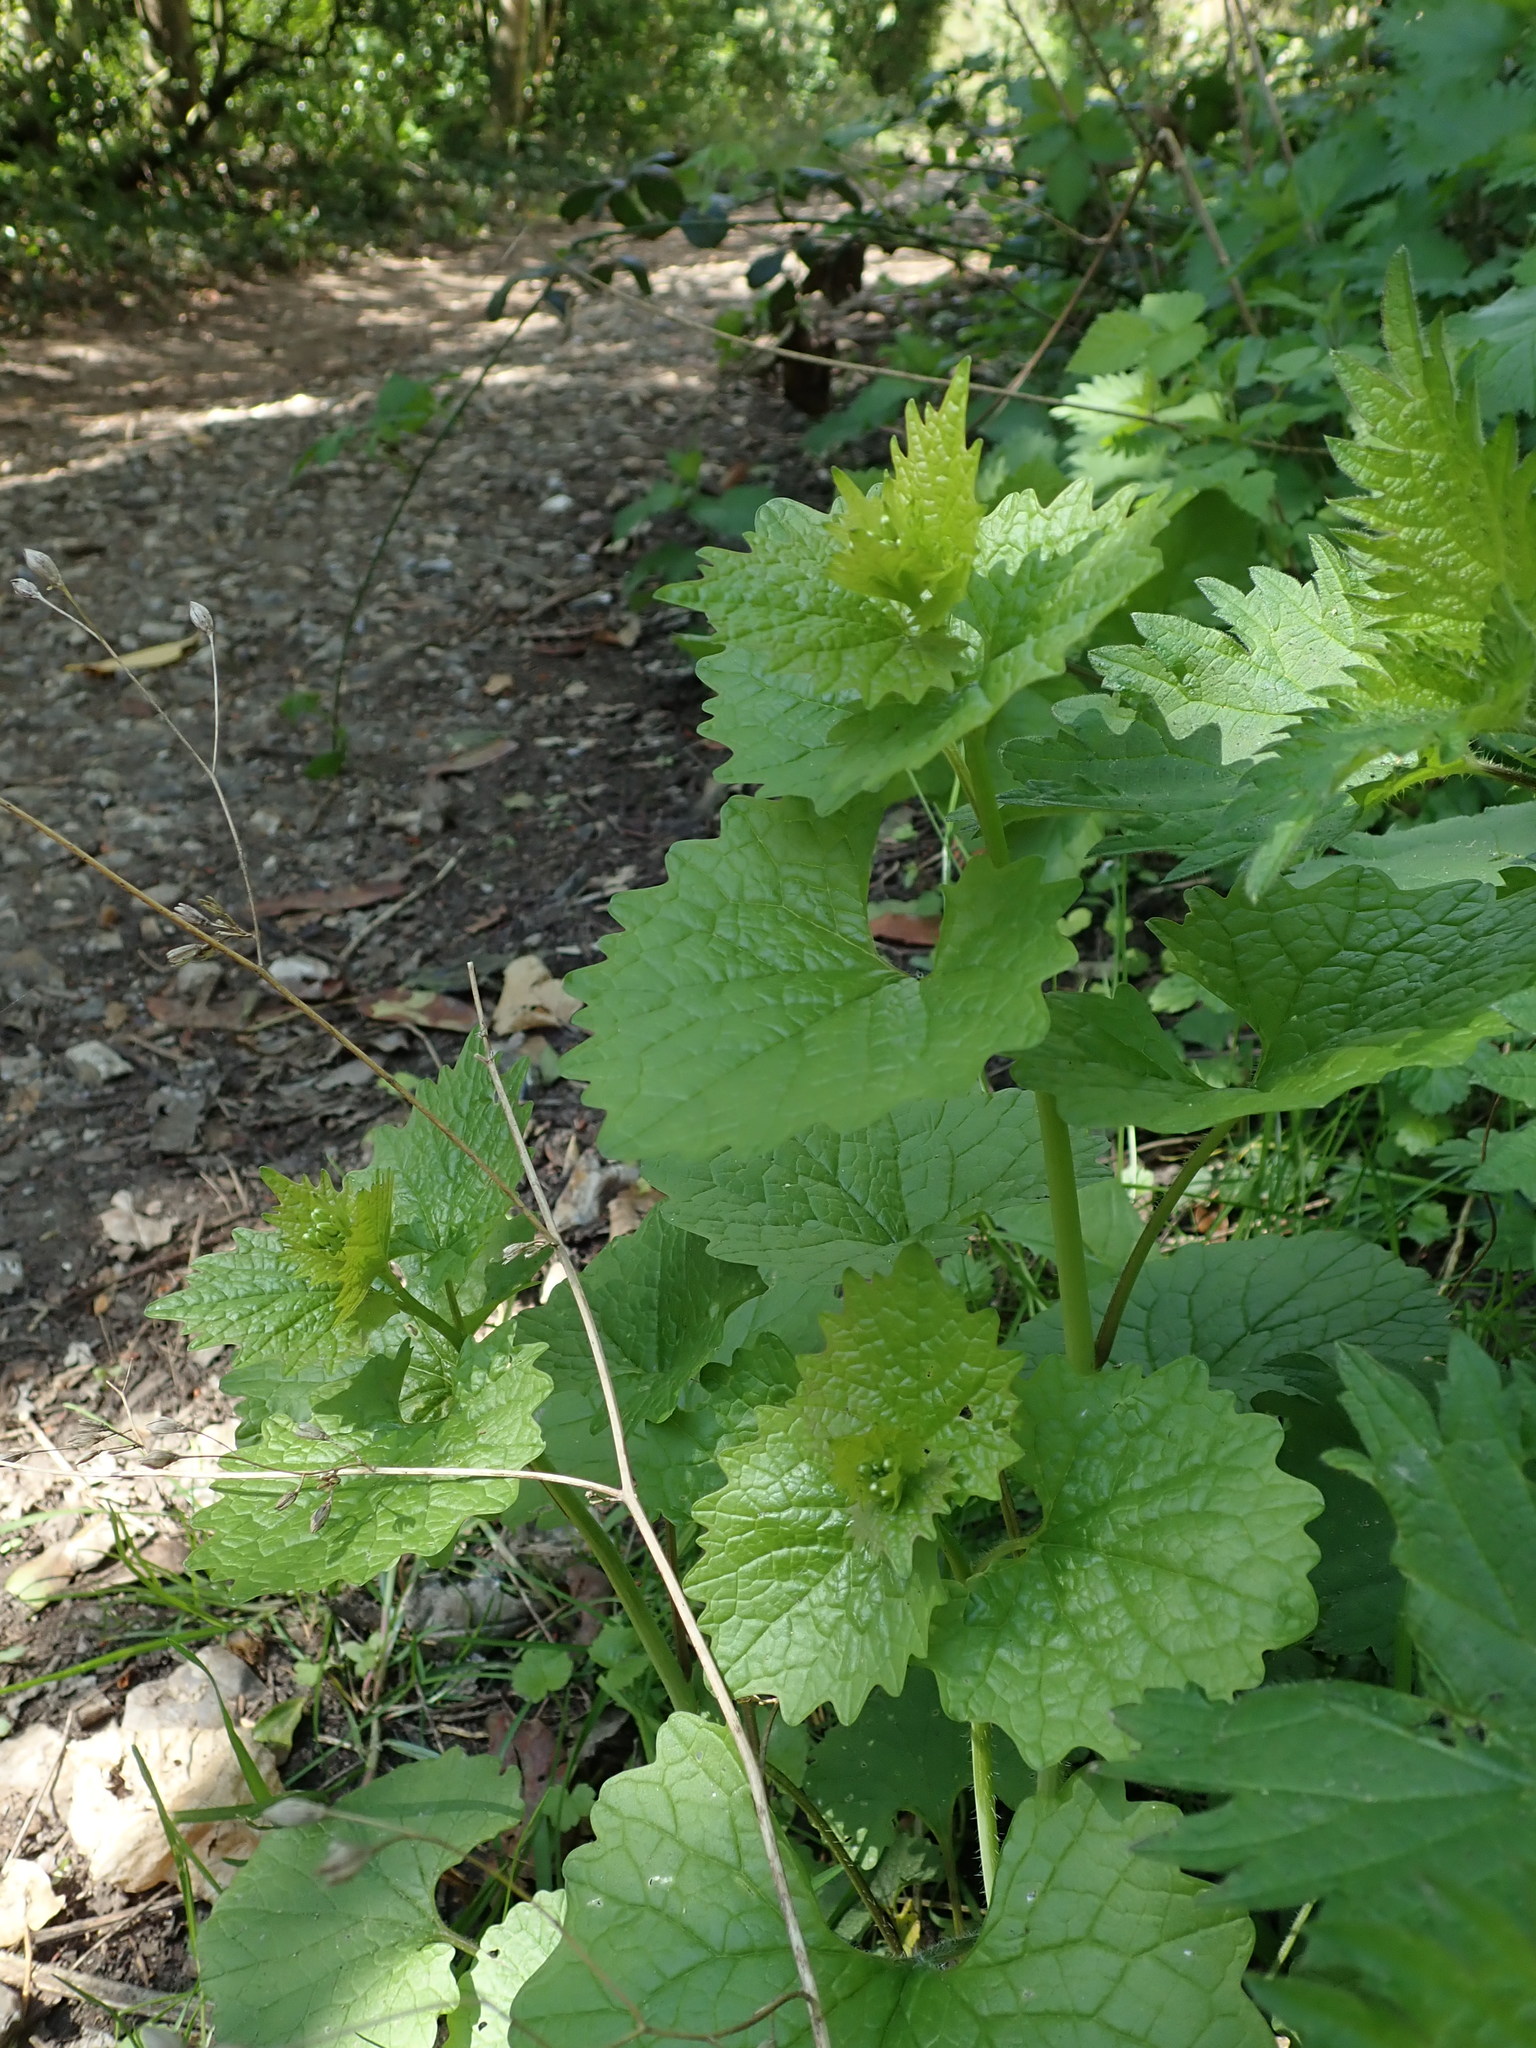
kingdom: Plantae
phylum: Tracheophyta
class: Magnoliopsida
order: Brassicales
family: Brassicaceae
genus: Alliaria
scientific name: Alliaria petiolata
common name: Garlic mustard
